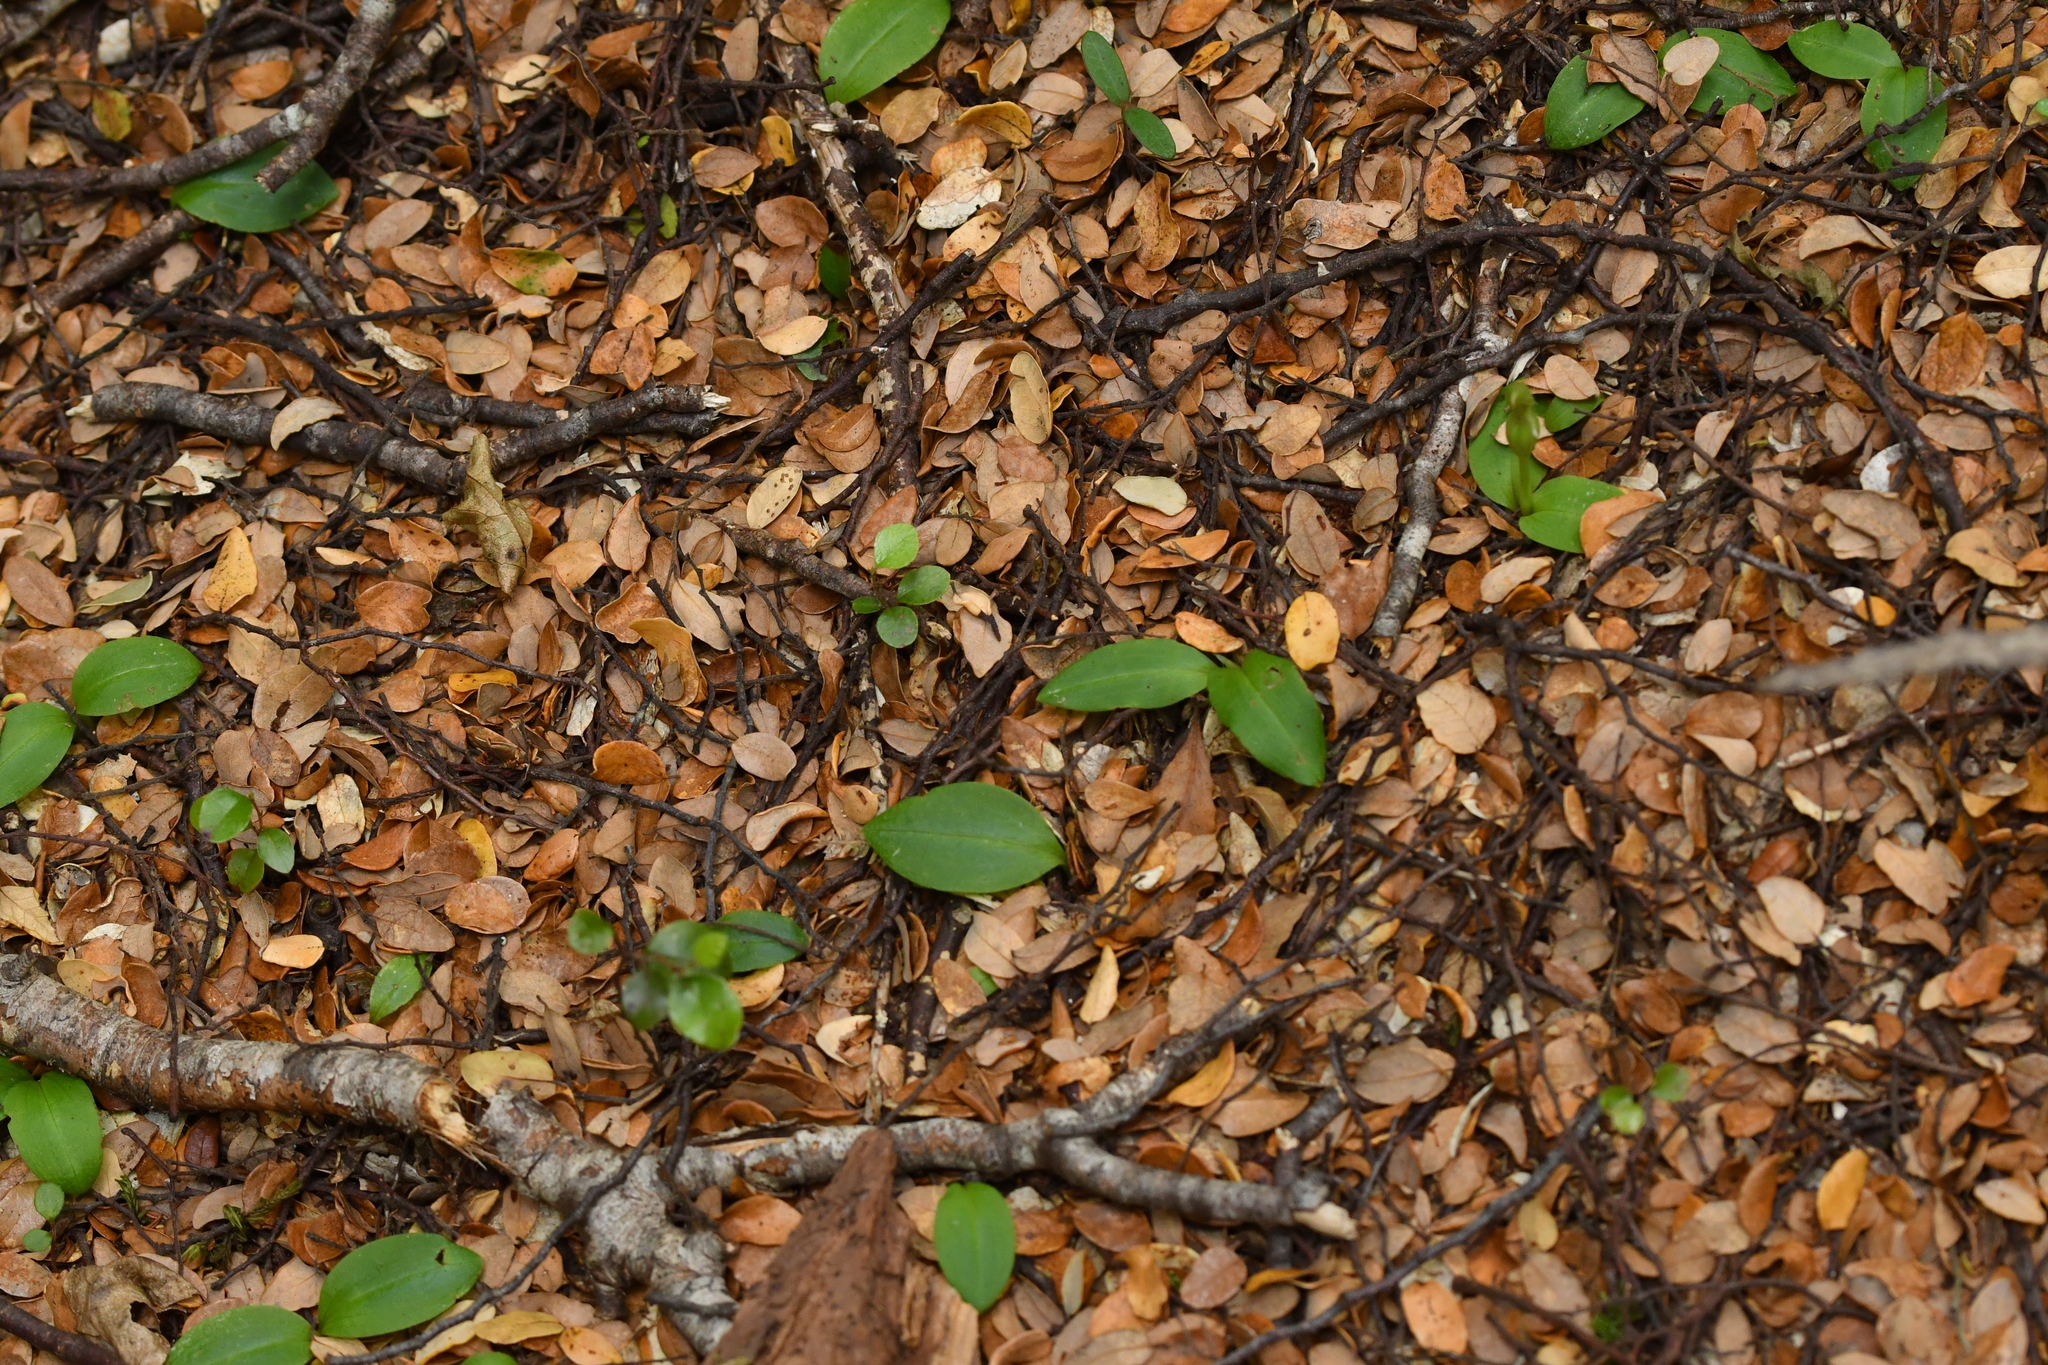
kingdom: Plantae
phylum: Tracheophyta
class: Liliopsida
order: Asparagales
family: Orchidaceae
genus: Chiloglottis
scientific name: Chiloglottis cornuta
